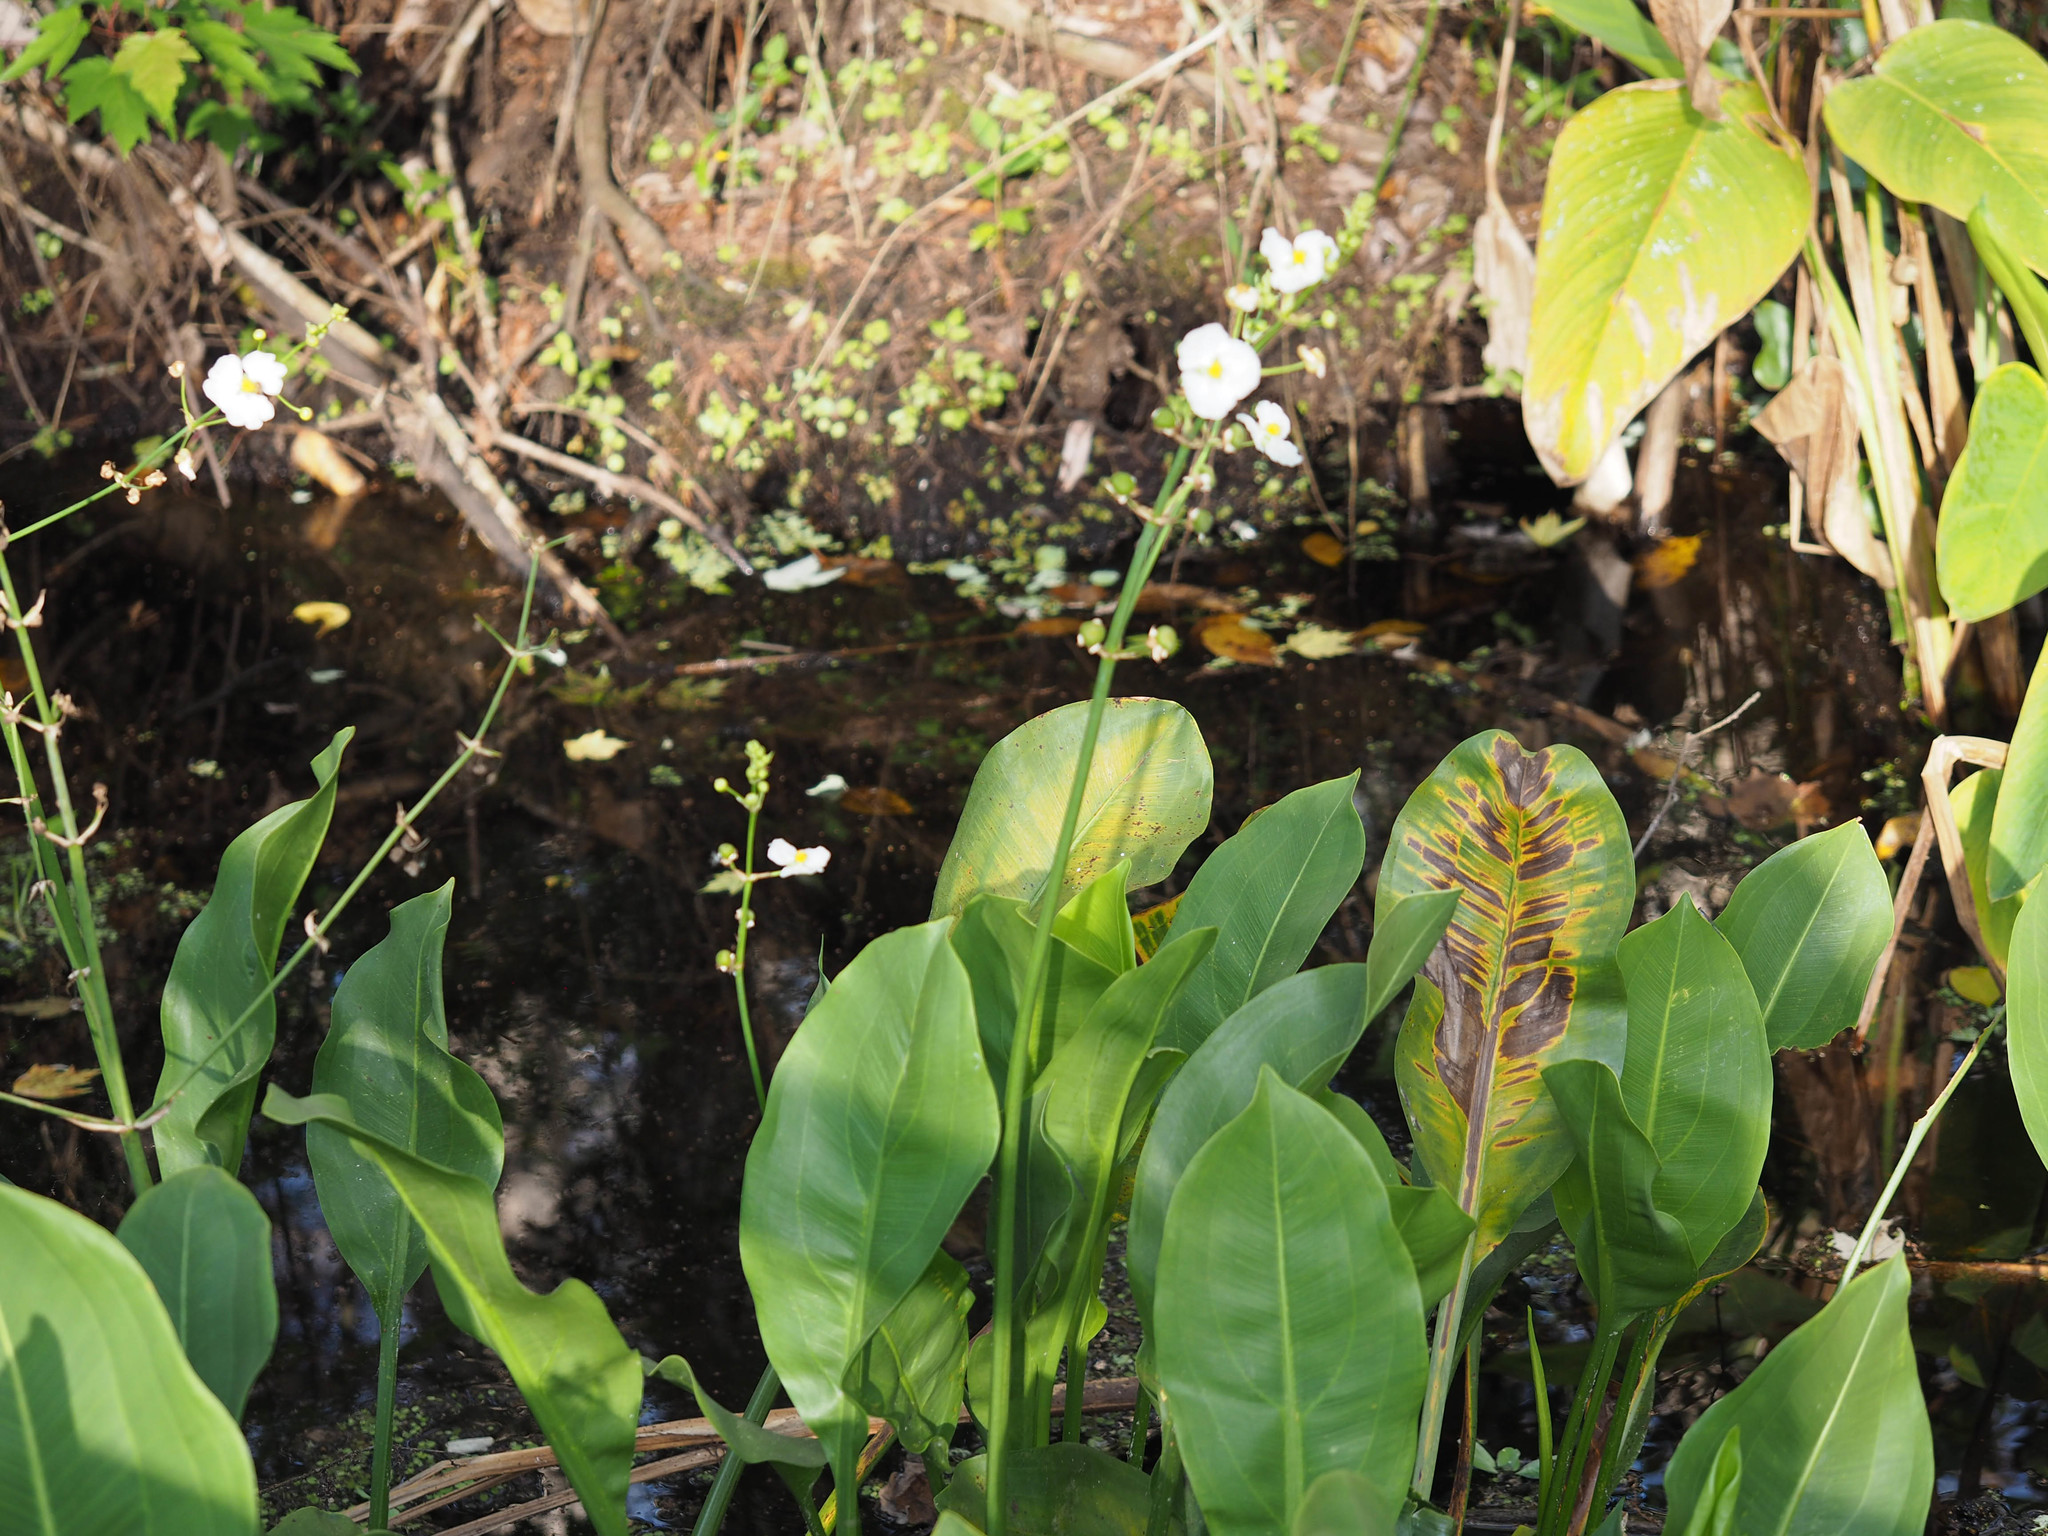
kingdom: Plantae
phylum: Tracheophyta
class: Liliopsida
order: Alismatales
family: Alismataceae
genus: Sagittaria
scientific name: Sagittaria lancifolia
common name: Lance-leaf arrowhead
